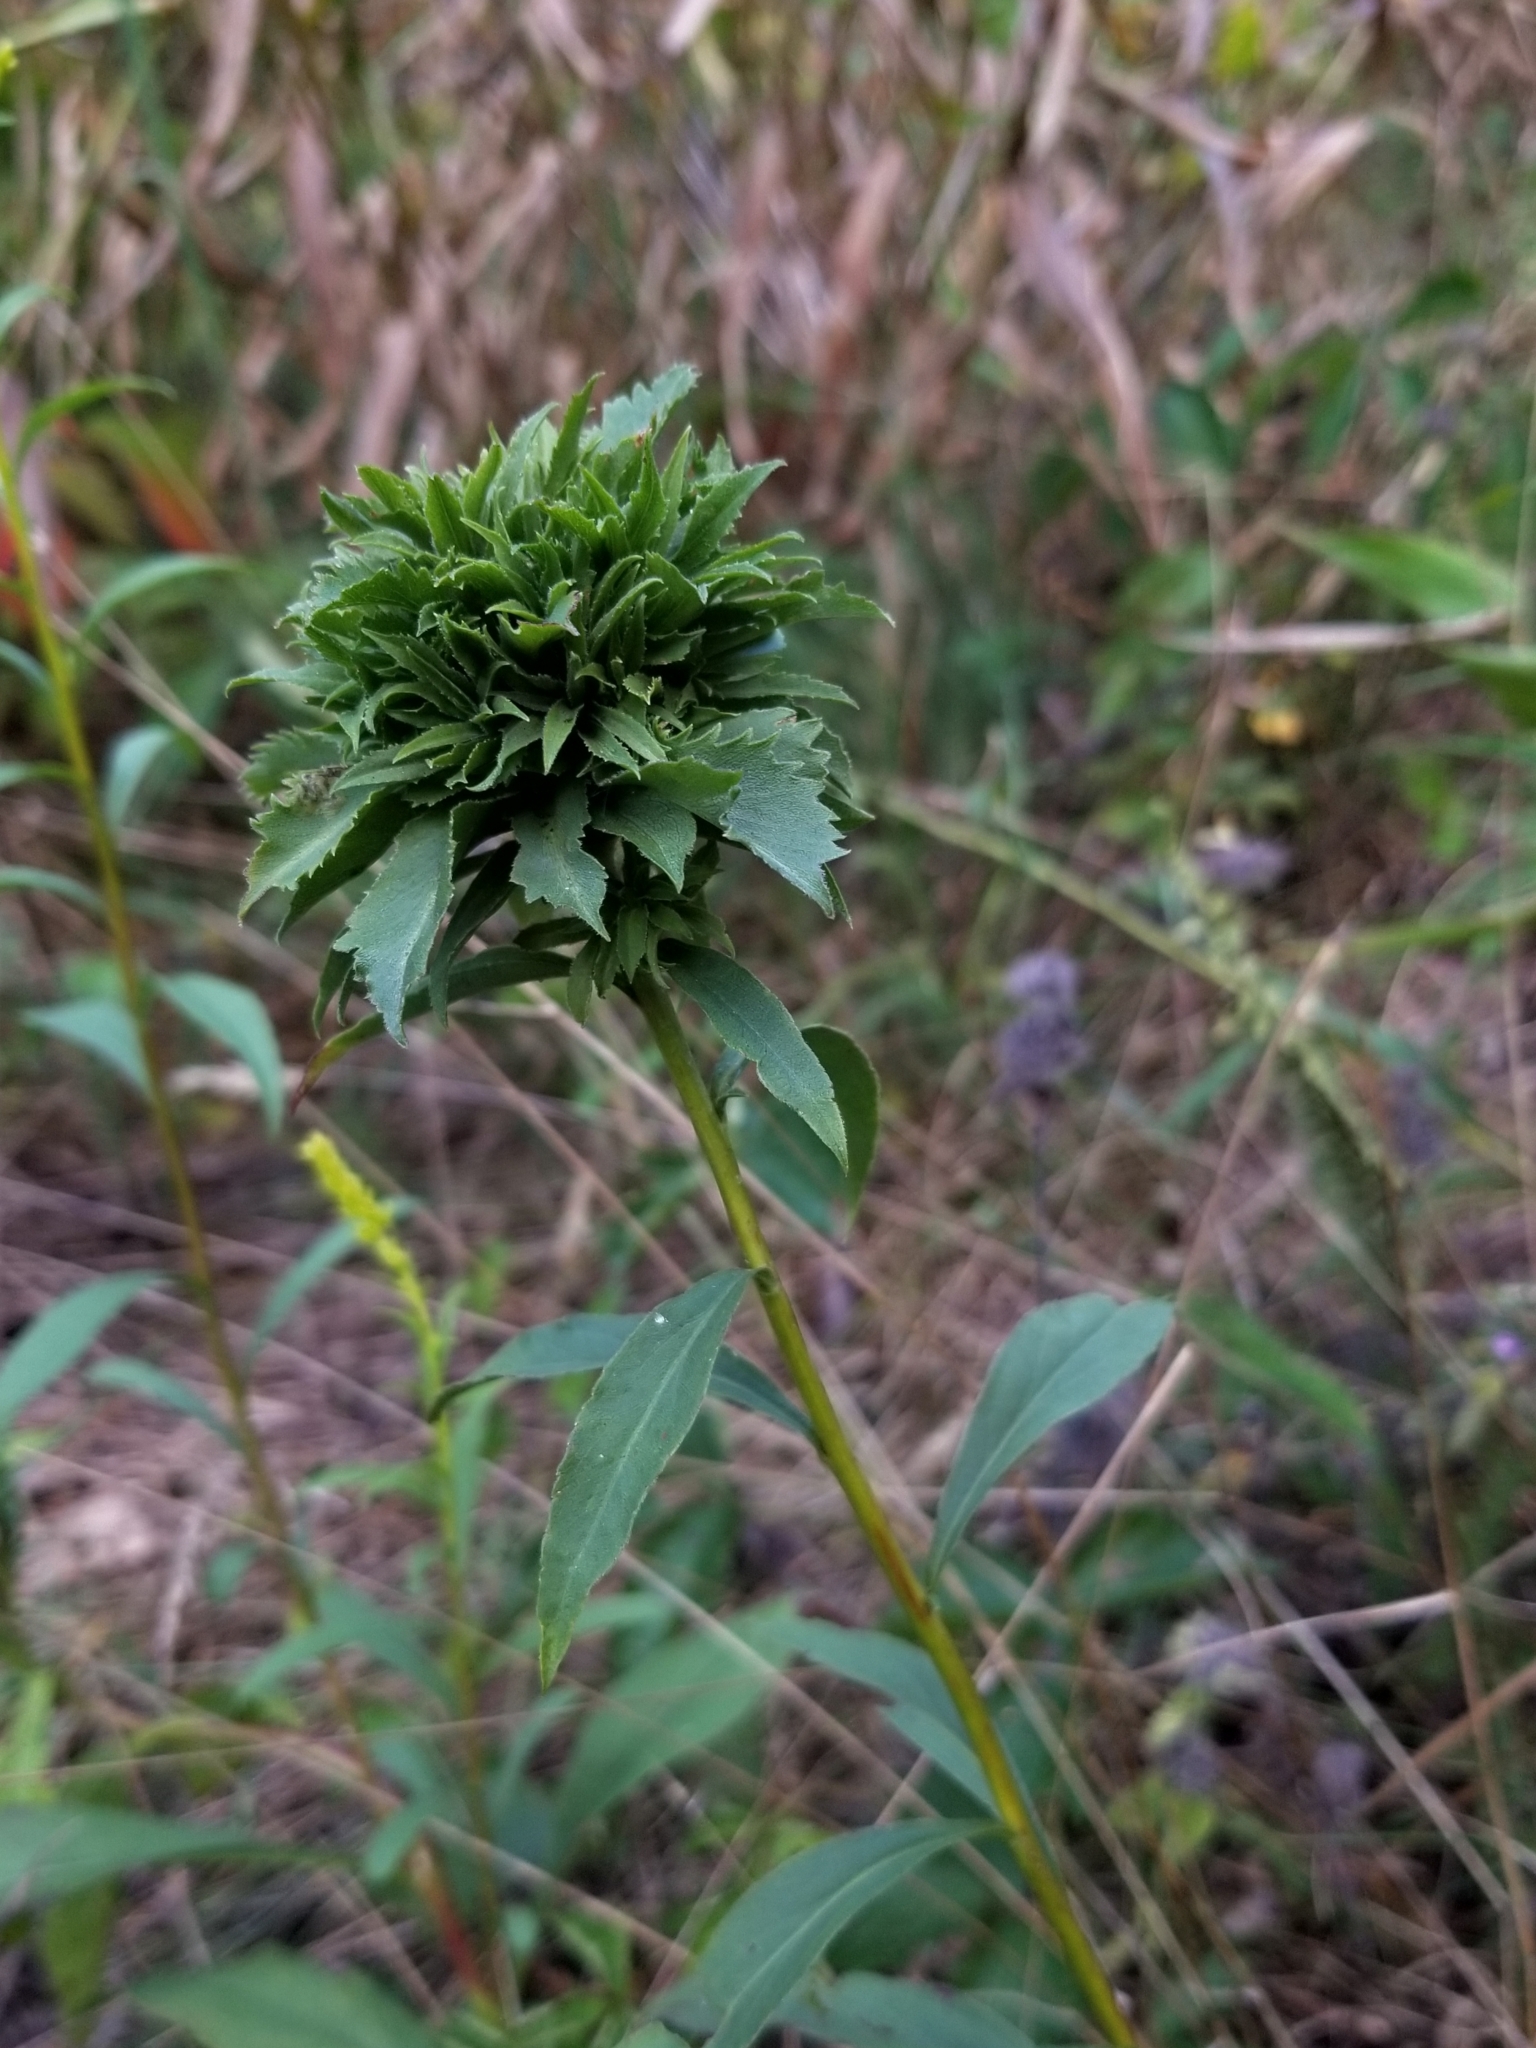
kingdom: Animalia
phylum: Arthropoda
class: Insecta
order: Diptera
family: Cecidomyiidae
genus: Asphondylia
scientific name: Asphondylia monacha
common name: Nun midge
